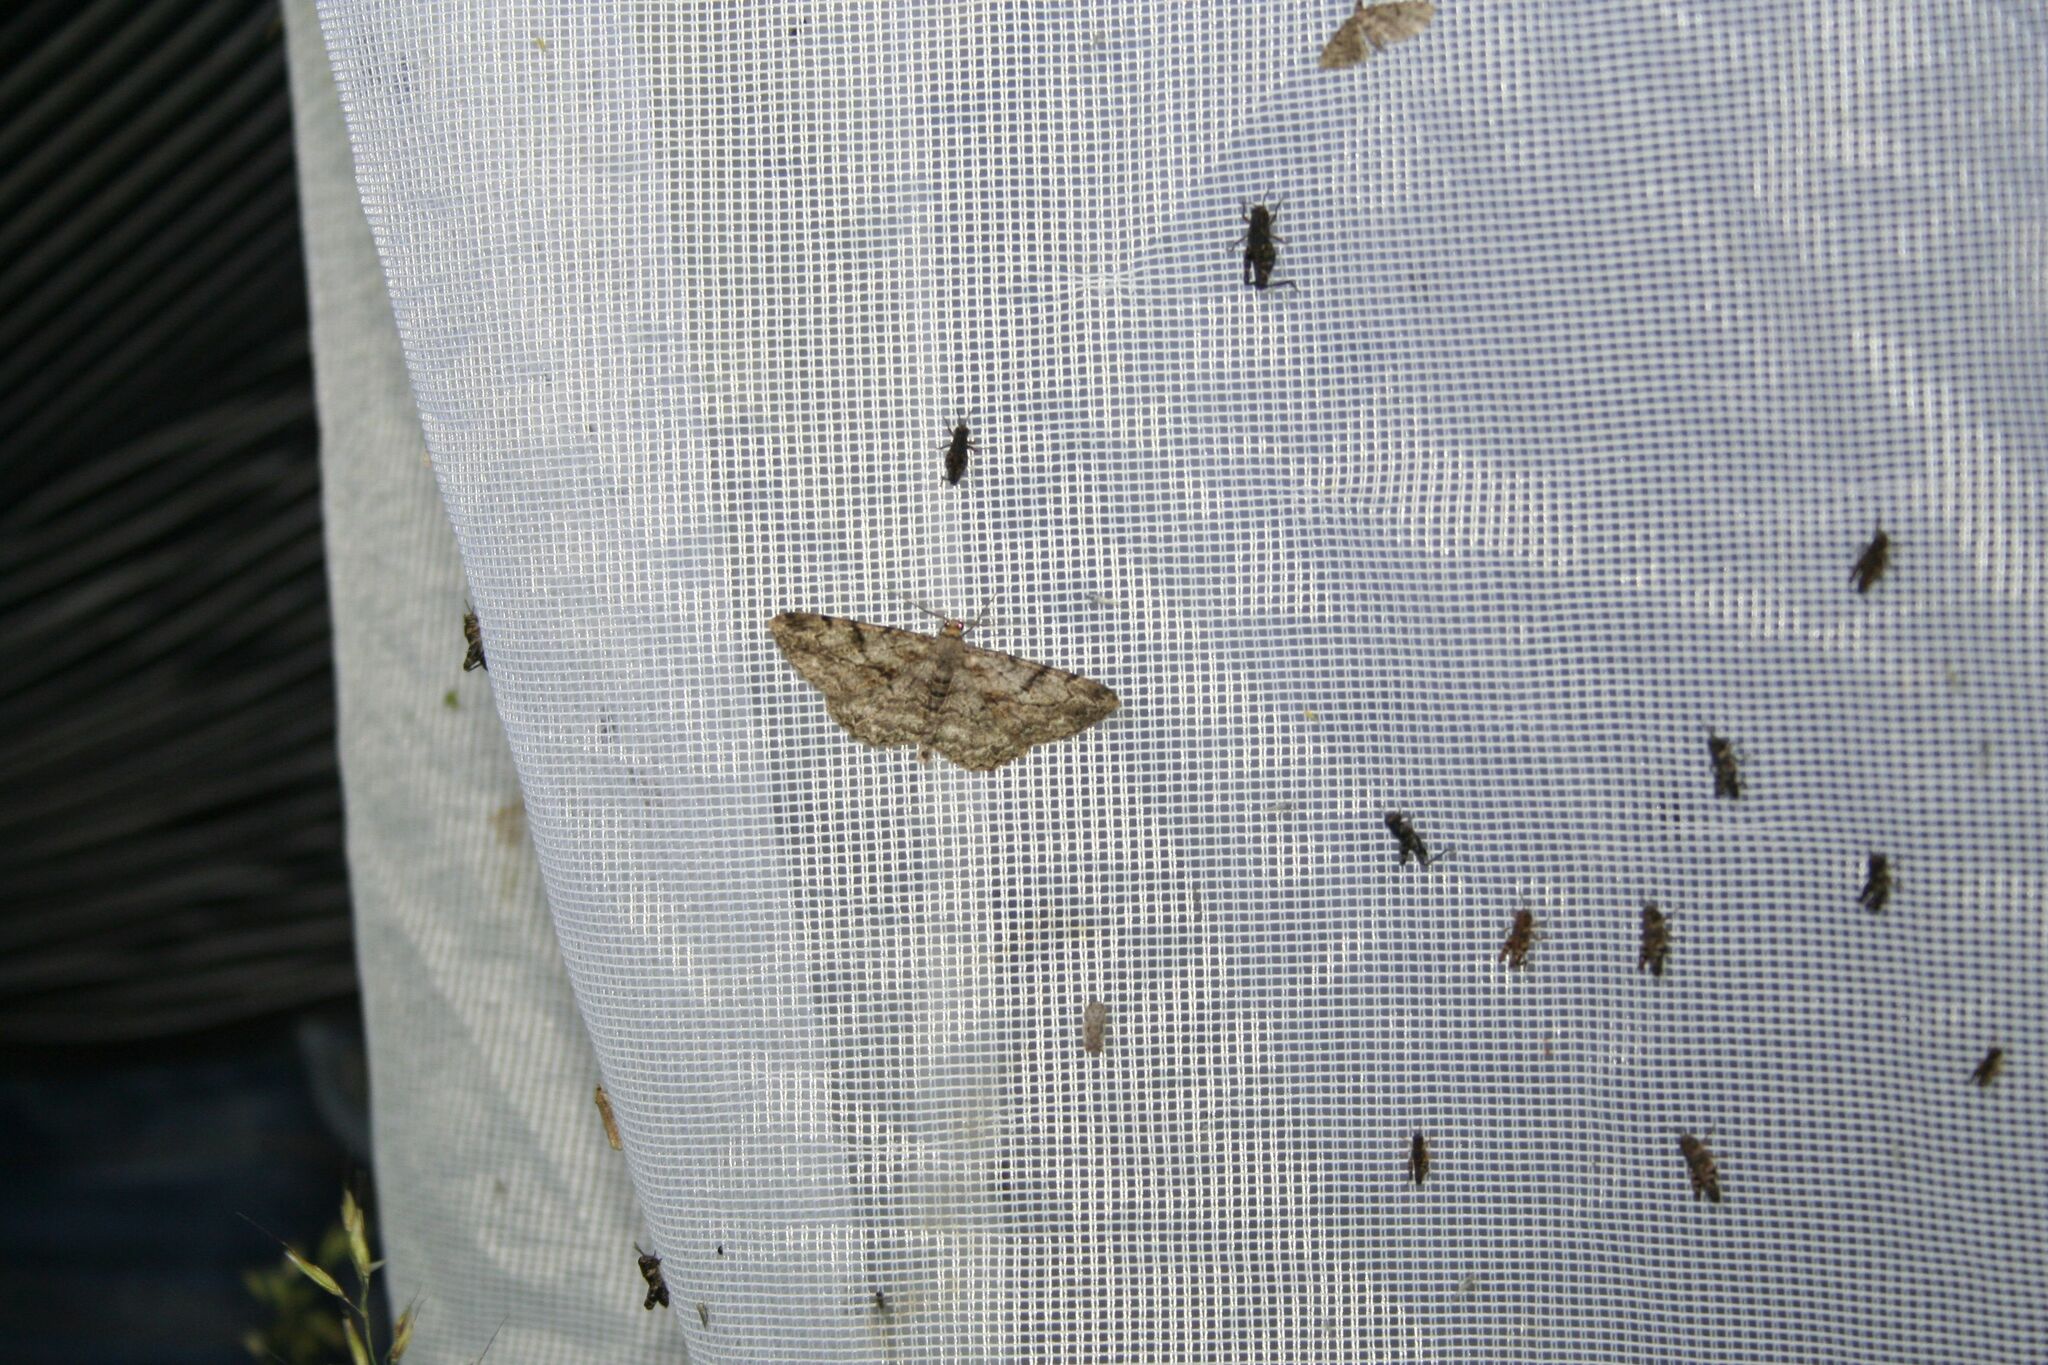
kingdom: Animalia
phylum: Arthropoda
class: Insecta
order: Lepidoptera
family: Geometridae
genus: Alcis
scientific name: Alcis repandata
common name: Mottled beauty
